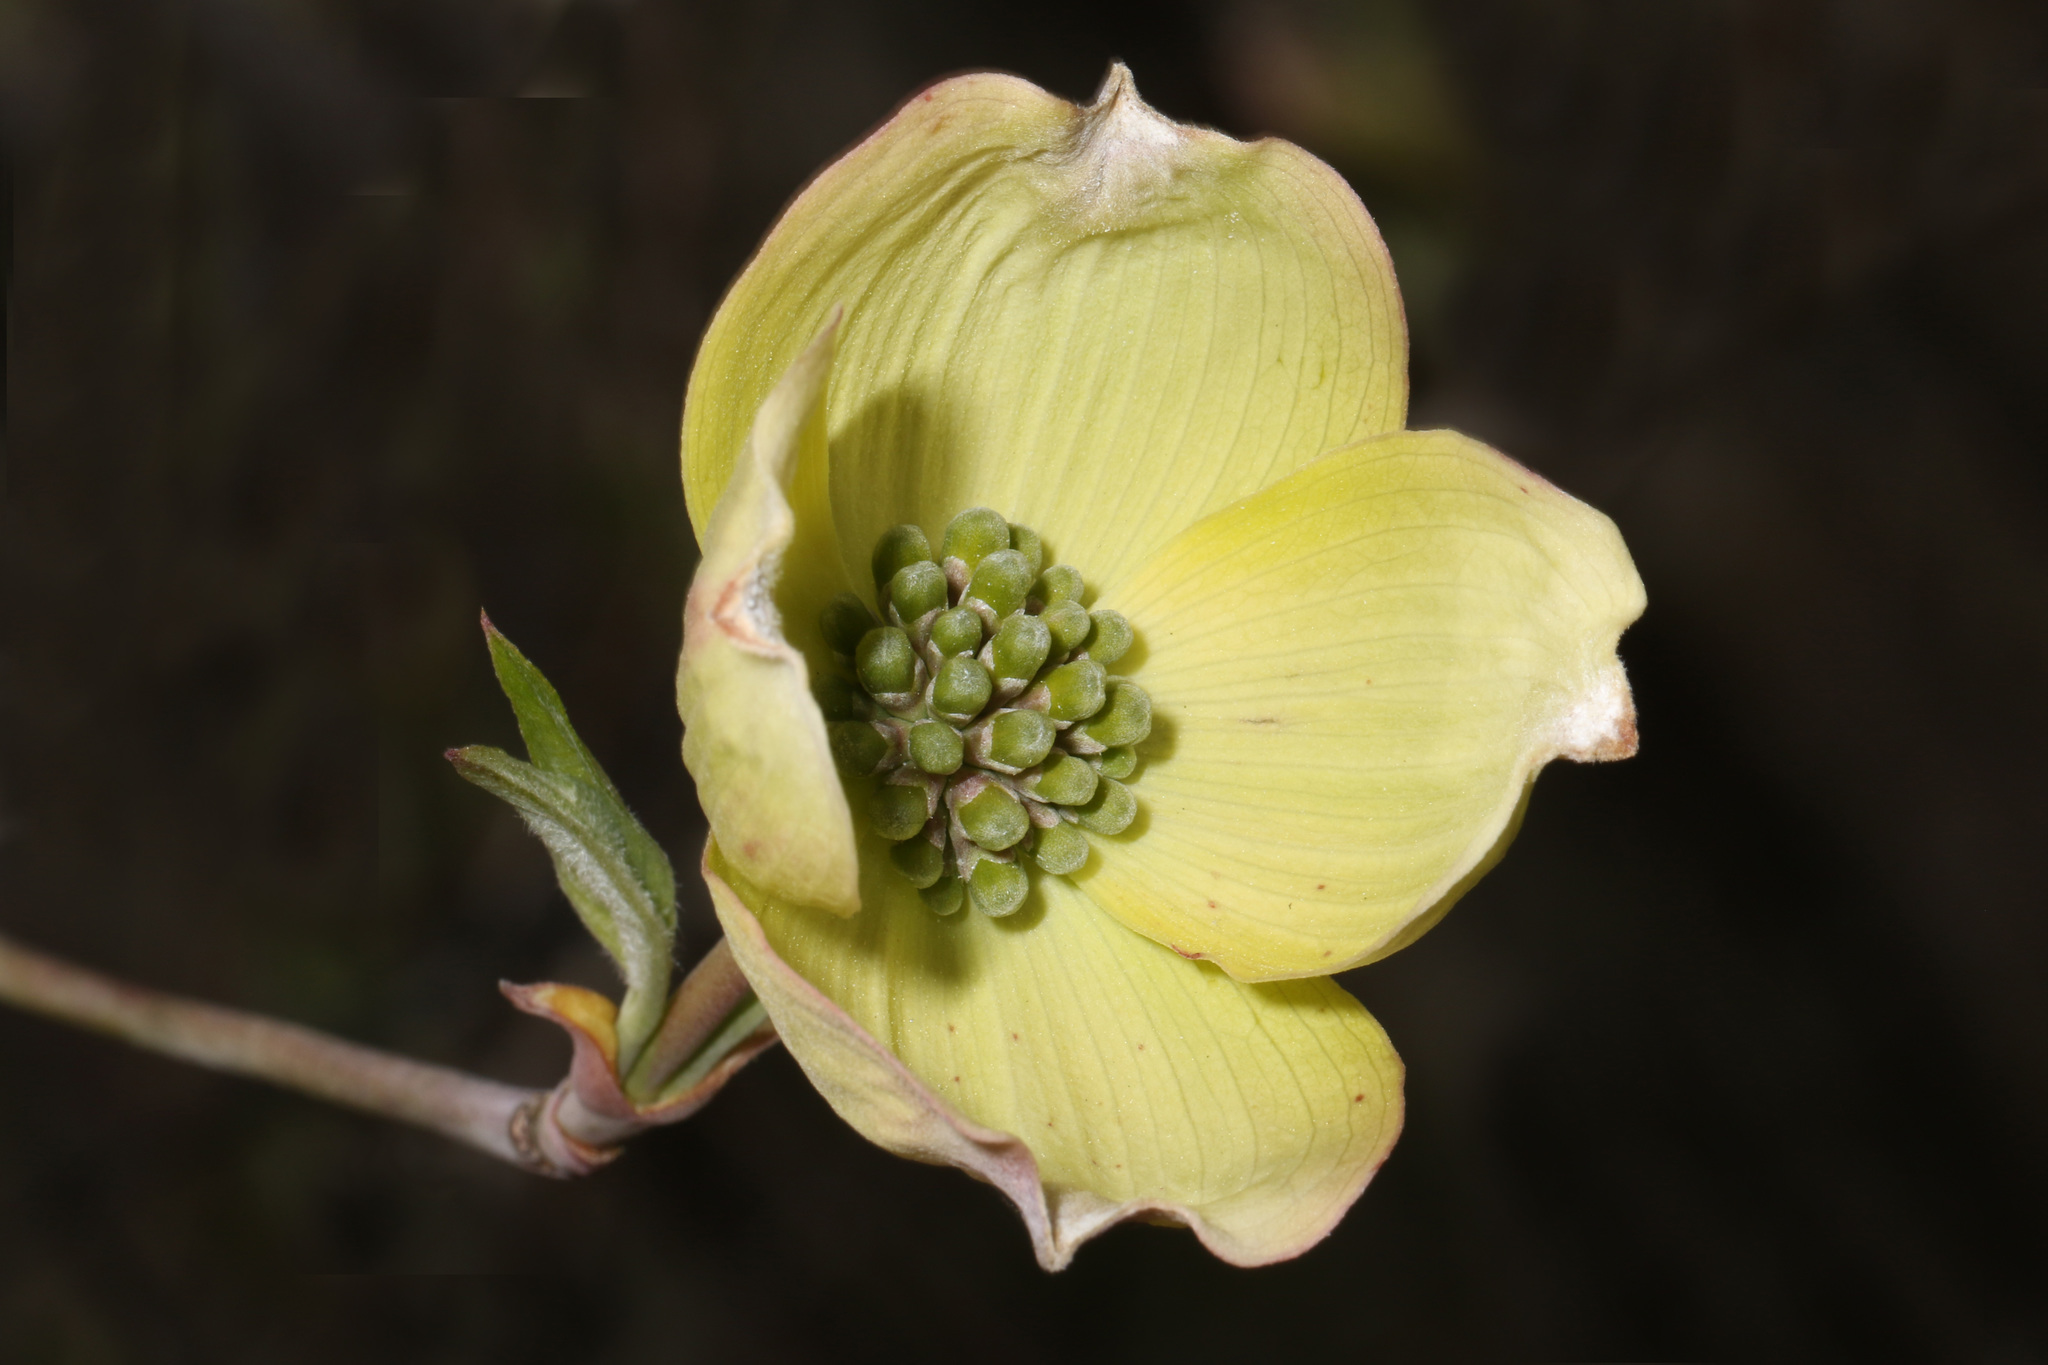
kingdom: Plantae
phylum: Tracheophyta
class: Magnoliopsida
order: Cornales
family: Cornaceae
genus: Cornus
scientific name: Cornus florida
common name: Flowering dogwood
